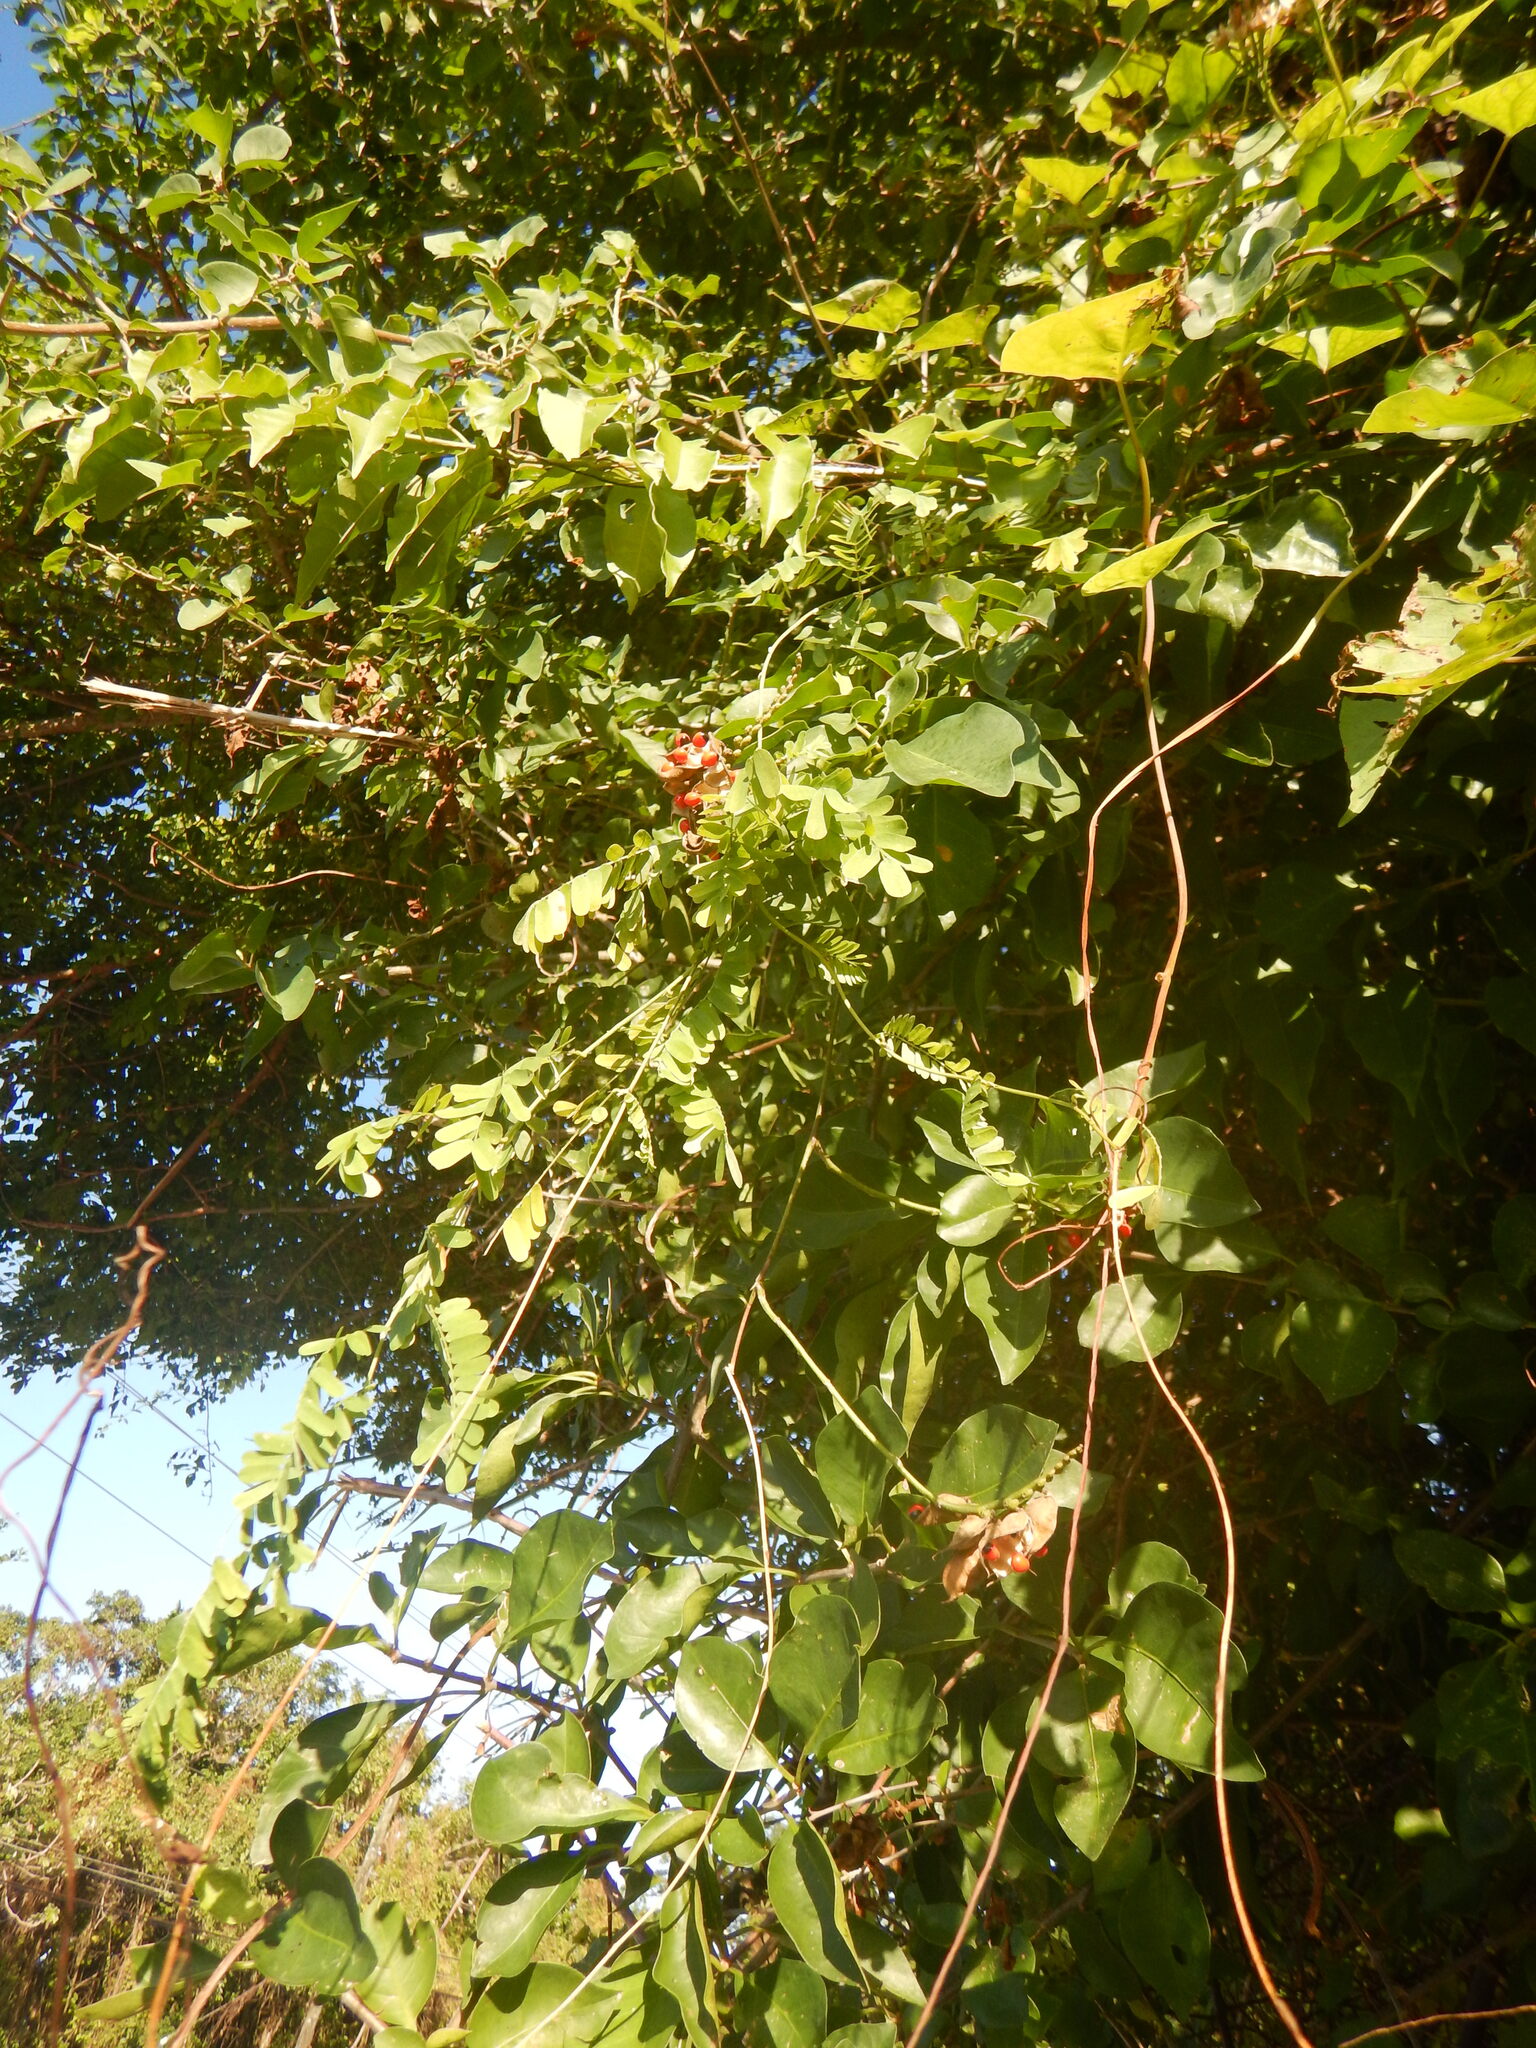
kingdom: Plantae
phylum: Tracheophyta
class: Magnoliopsida
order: Fabales
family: Fabaceae
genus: Abrus
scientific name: Abrus precatorius
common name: Rosarypea
